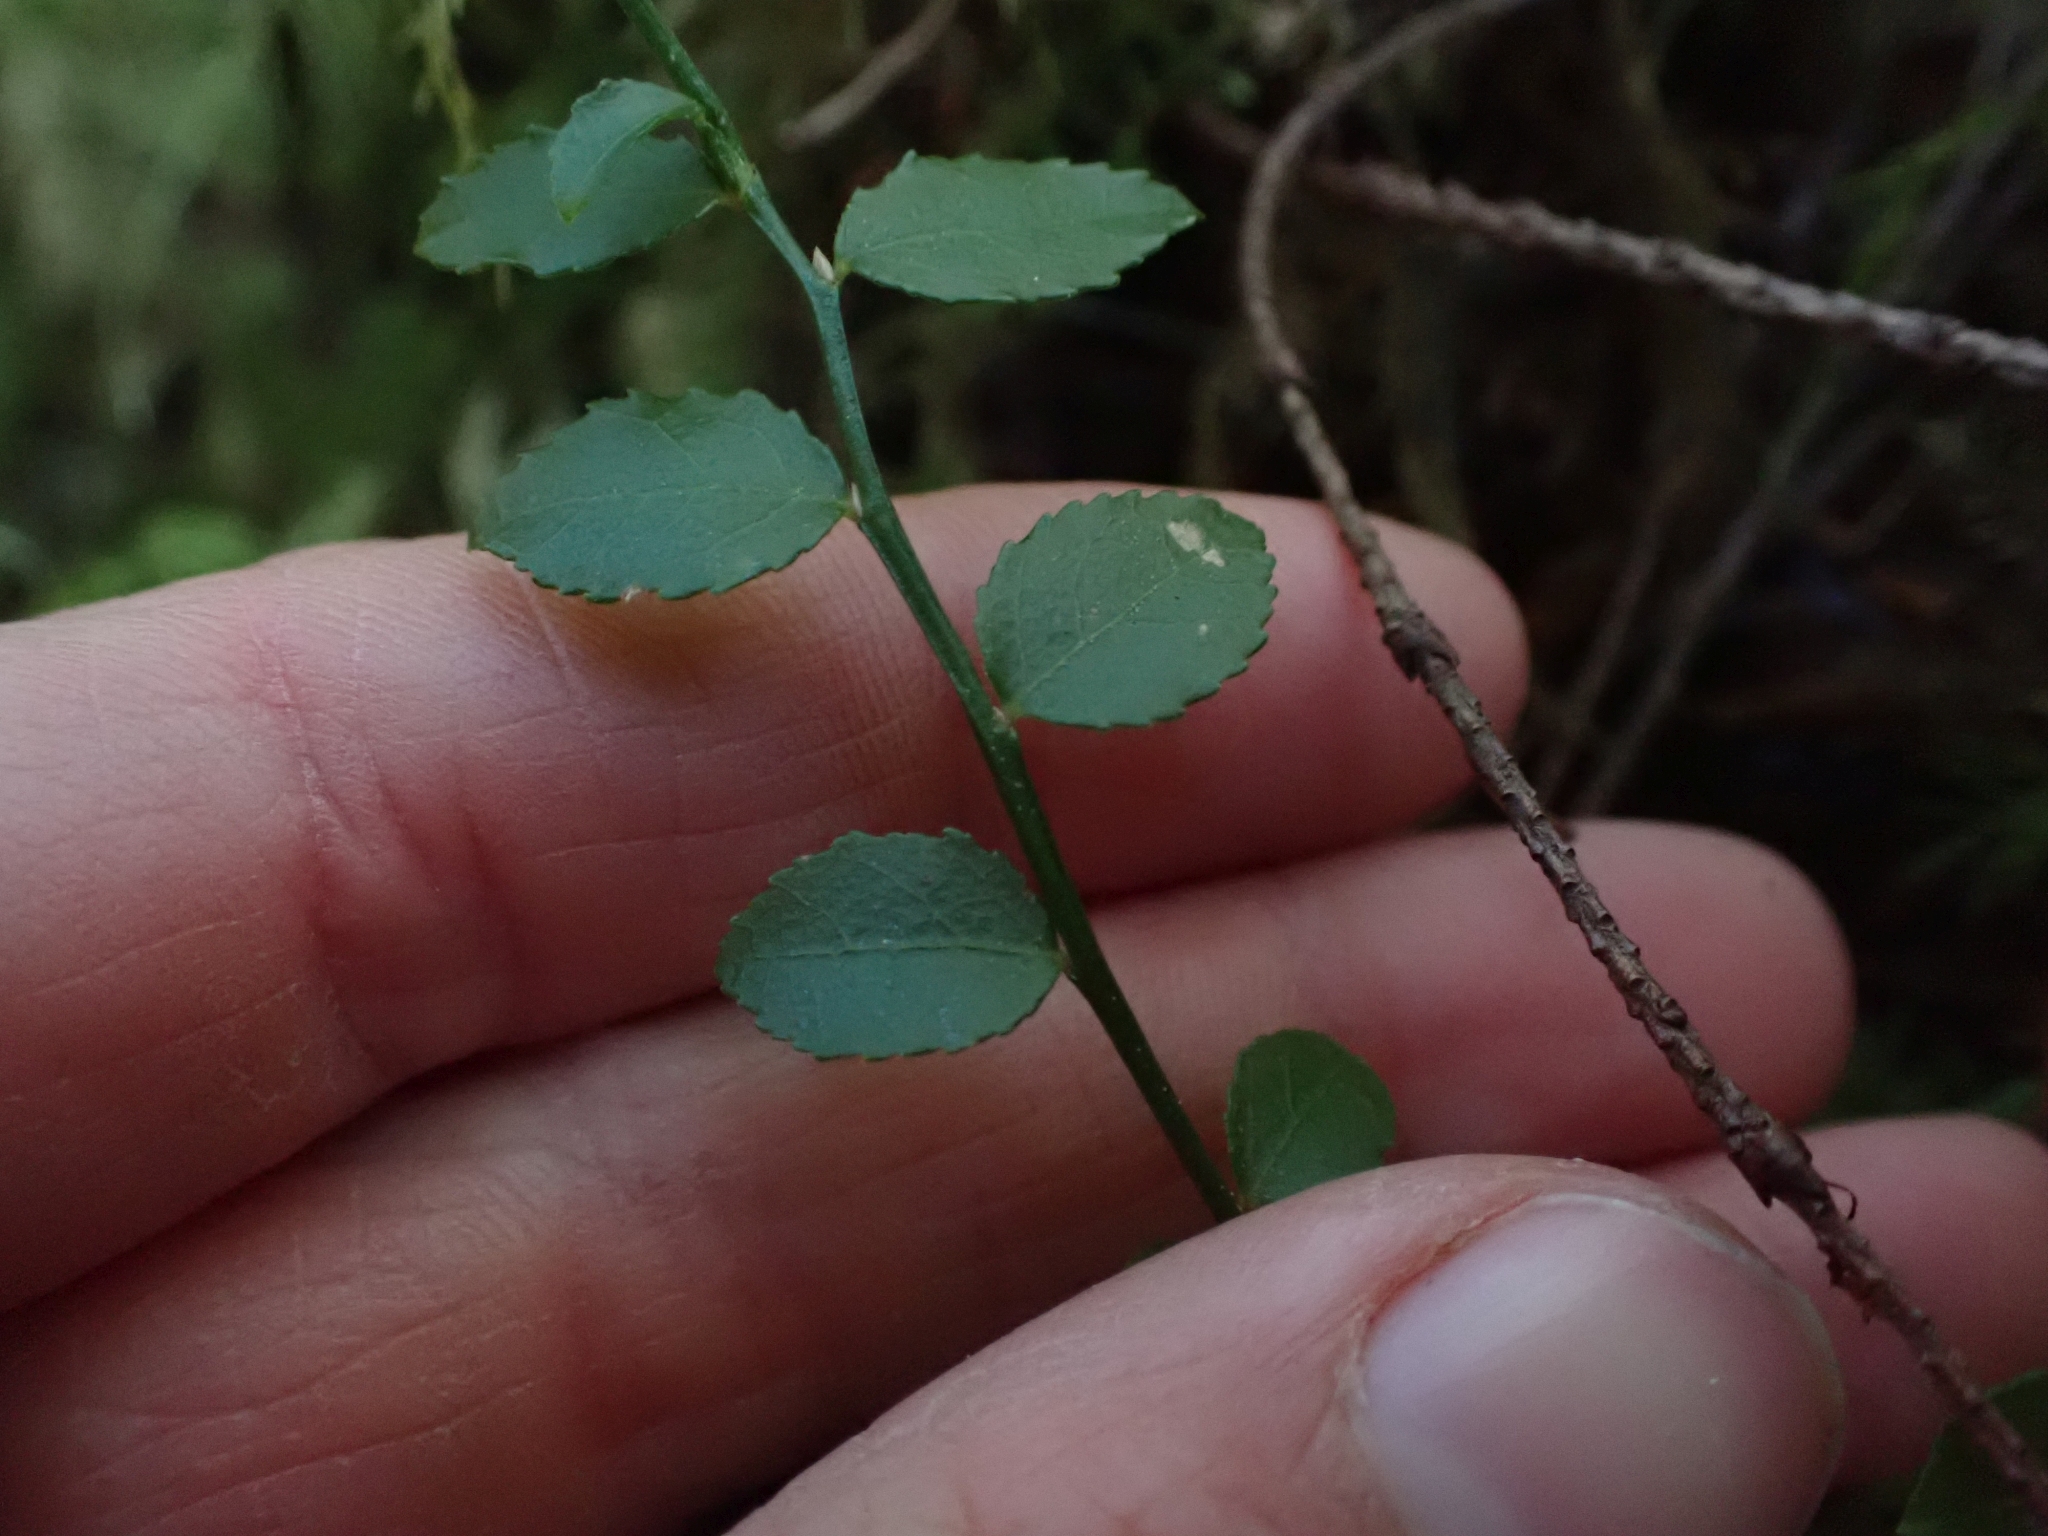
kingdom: Plantae
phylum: Tracheophyta
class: Magnoliopsida
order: Ericales
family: Ericaceae
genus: Vaccinium
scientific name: Vaccinium parvifolium
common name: Red-huckleberry
